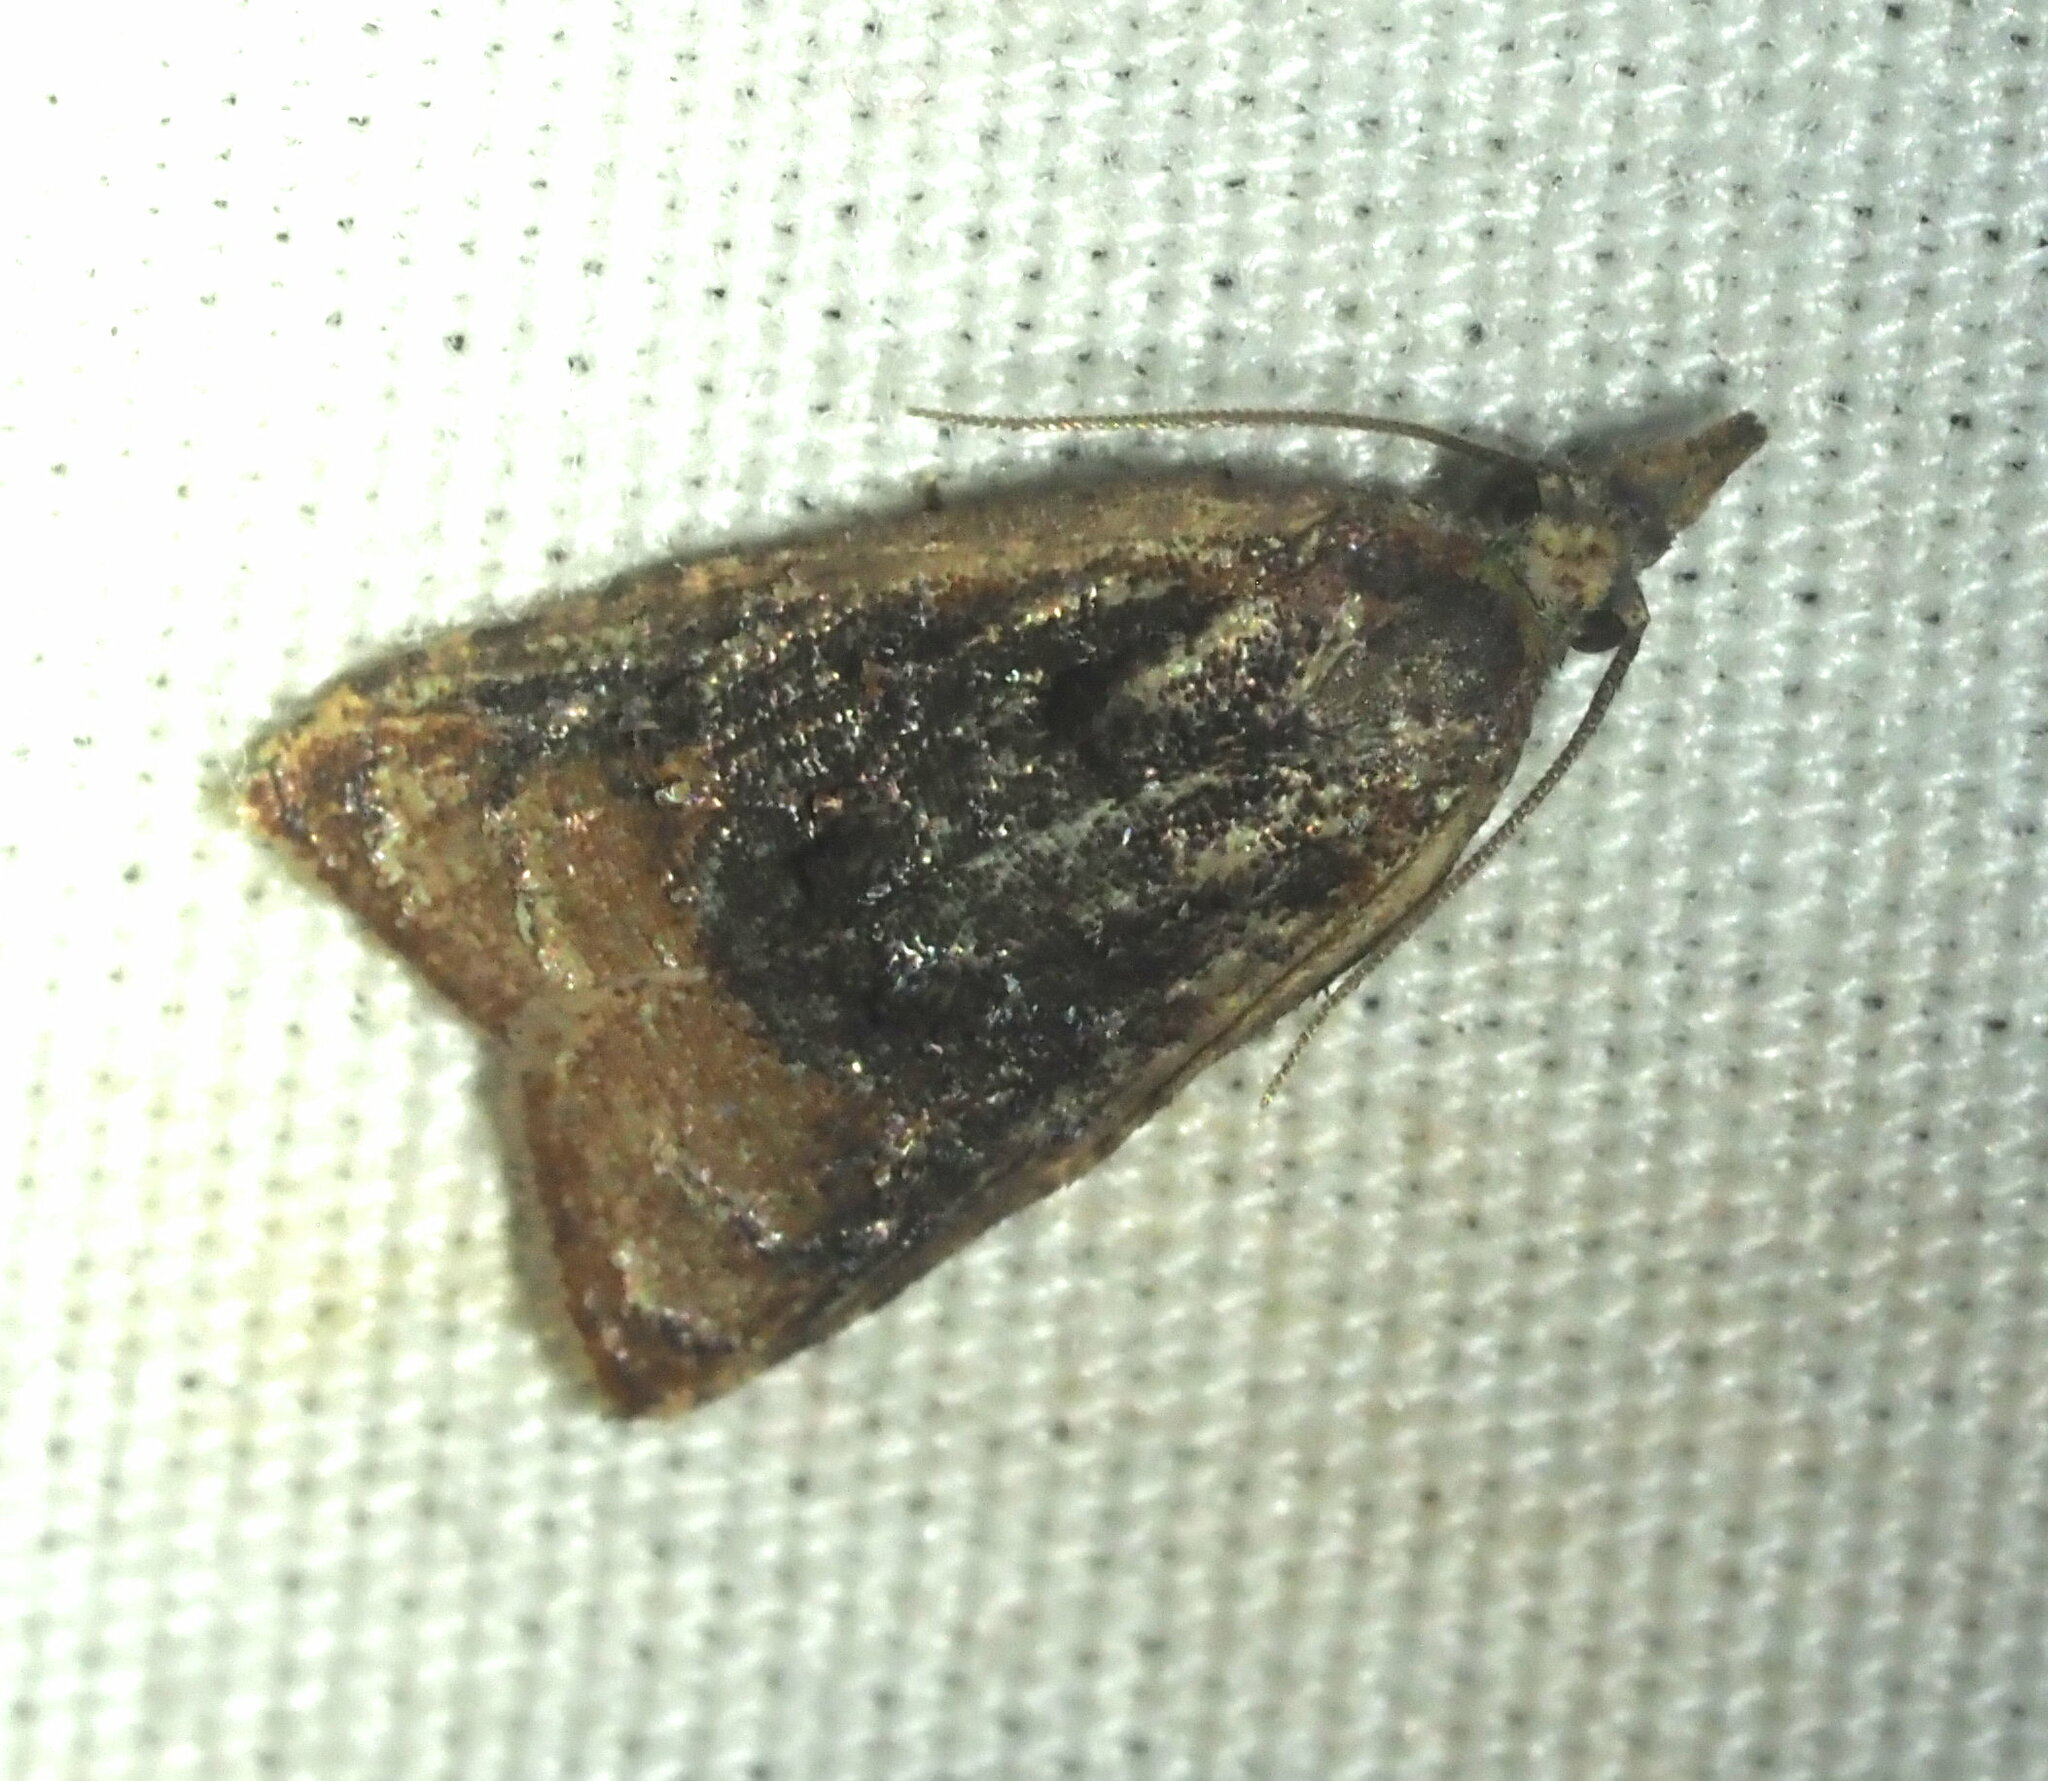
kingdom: Animalia
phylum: Arthropoda
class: Insecta
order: Lepidoptera
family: Tortricidae
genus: Platynota
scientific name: Platynota rostrana
